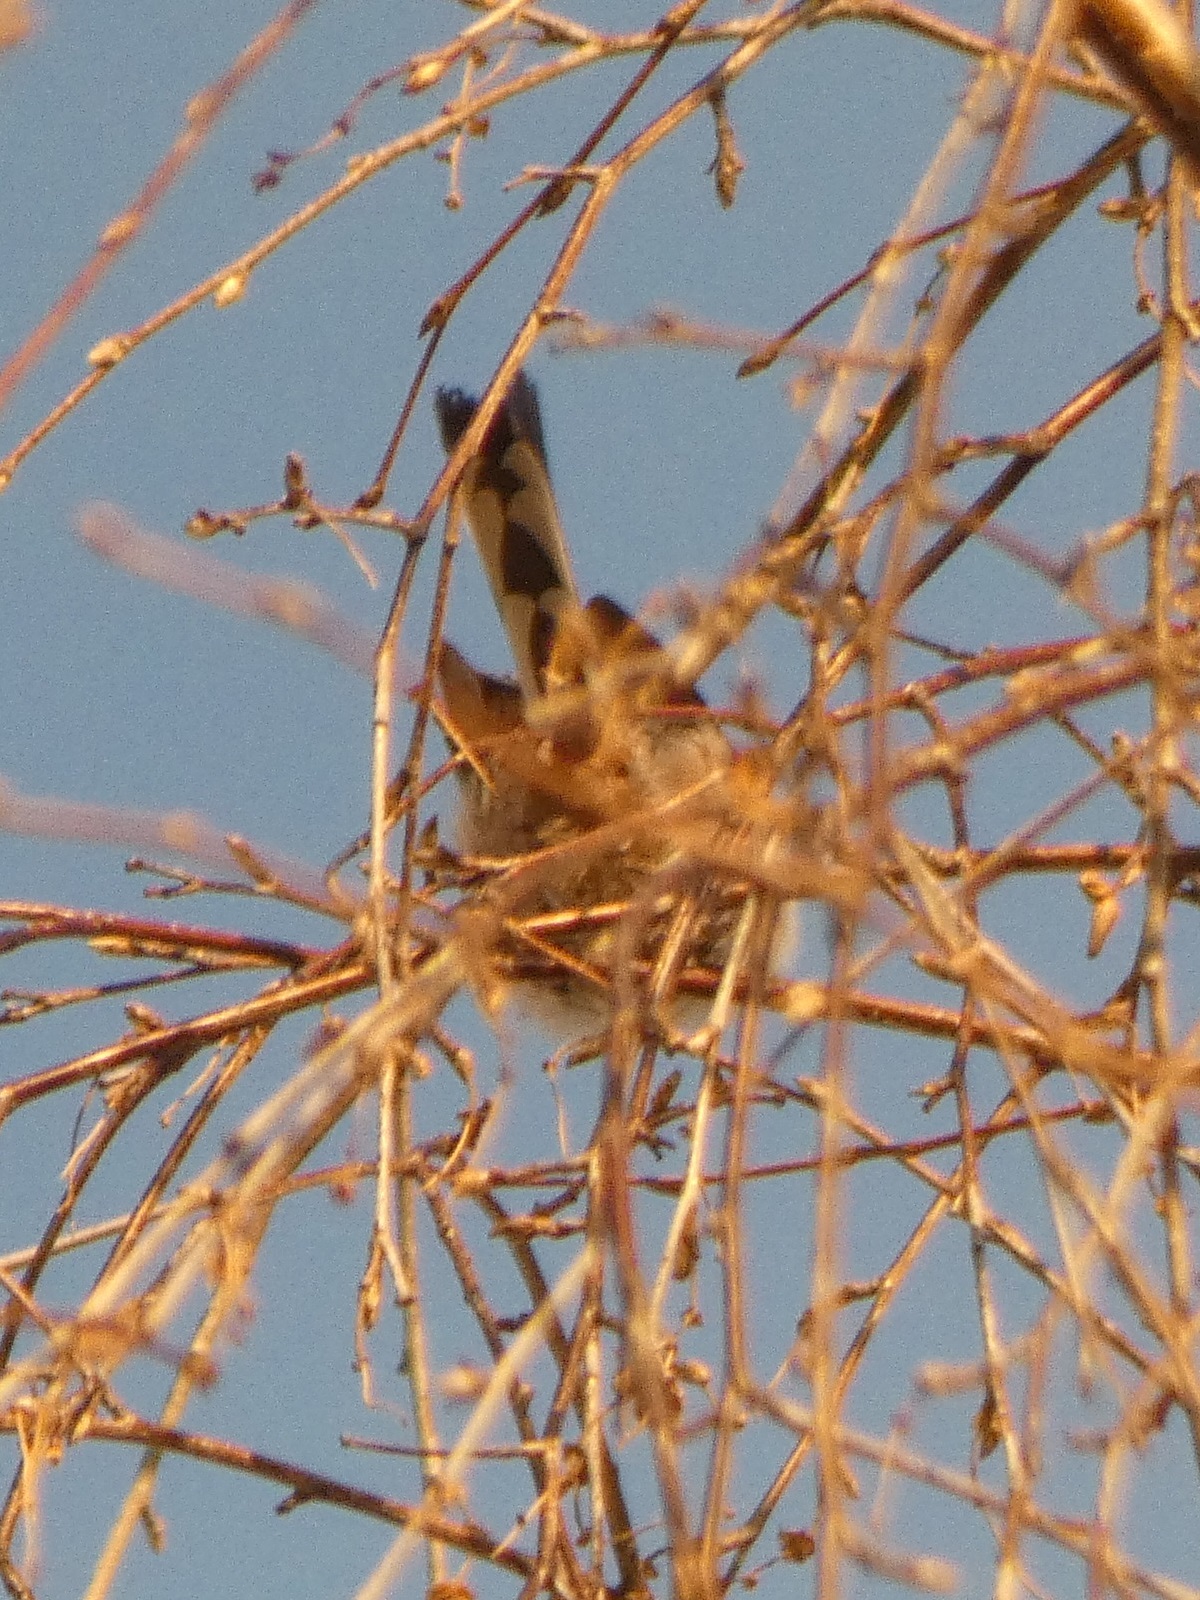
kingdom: Animalia
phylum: Chordata
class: Aves
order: Passeriformes
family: Aegithalidae
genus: Aegithalos
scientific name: Aegithalos caudatus
